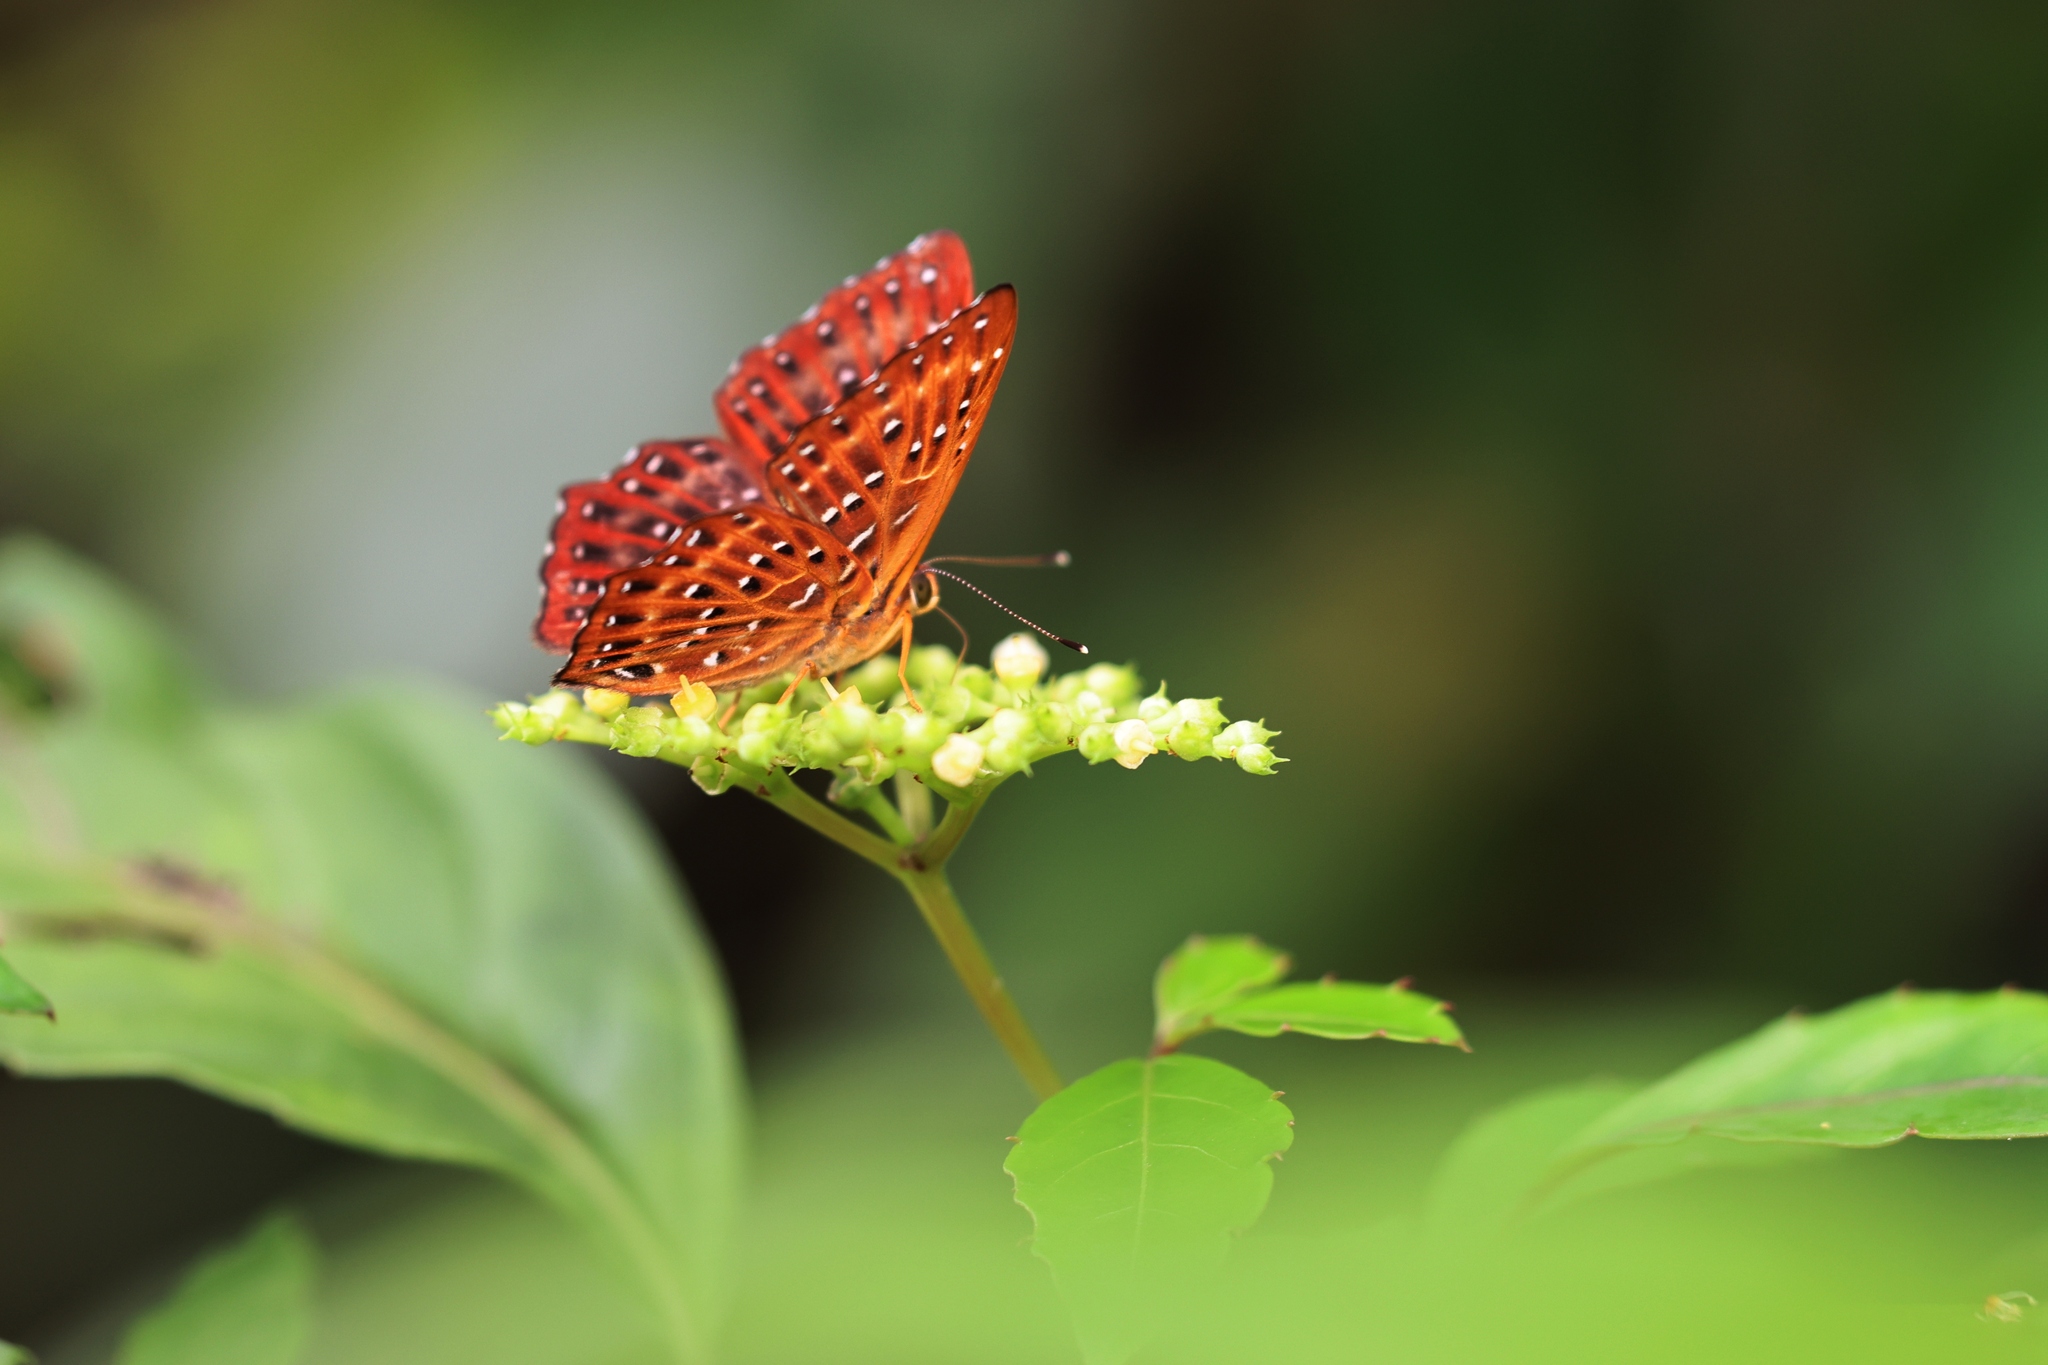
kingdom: Animalia
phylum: Arthropoda
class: Insecta
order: Lepidoptera
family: Riodinidae
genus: Zemeros
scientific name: Zemeros flegyas
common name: Punchinello
